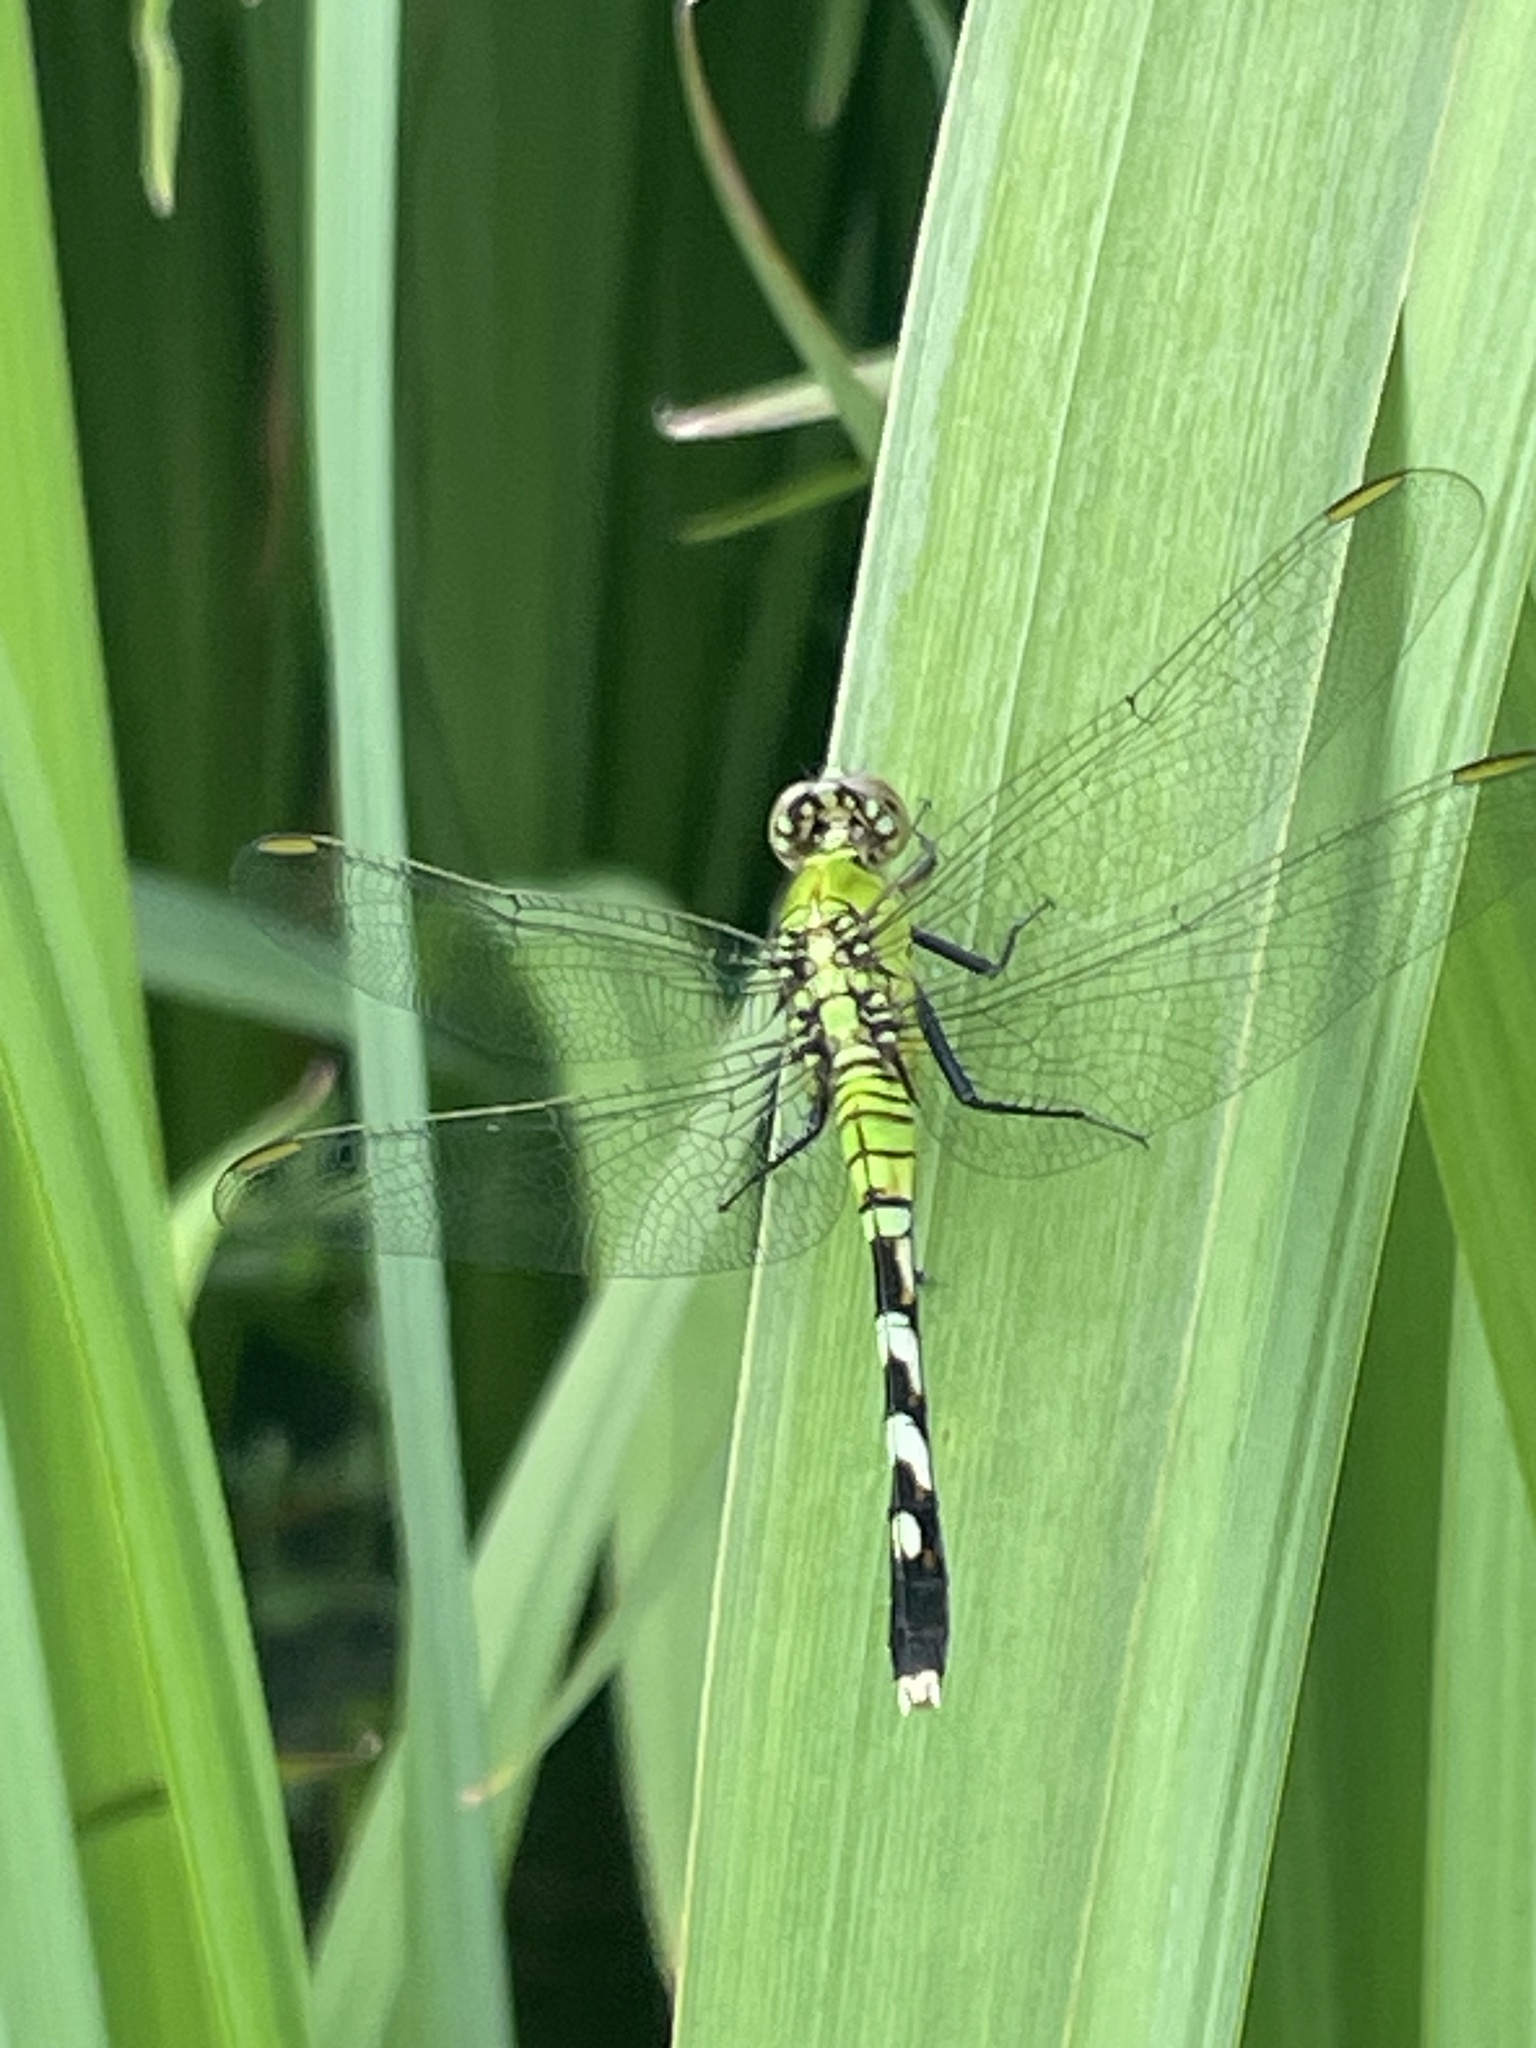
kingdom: Animalia
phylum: Arthropoda
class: Insecta
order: Odonata
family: Libellulidae
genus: Erythemis
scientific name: Erythemis simplicicollis
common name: Eastern pondhawk
